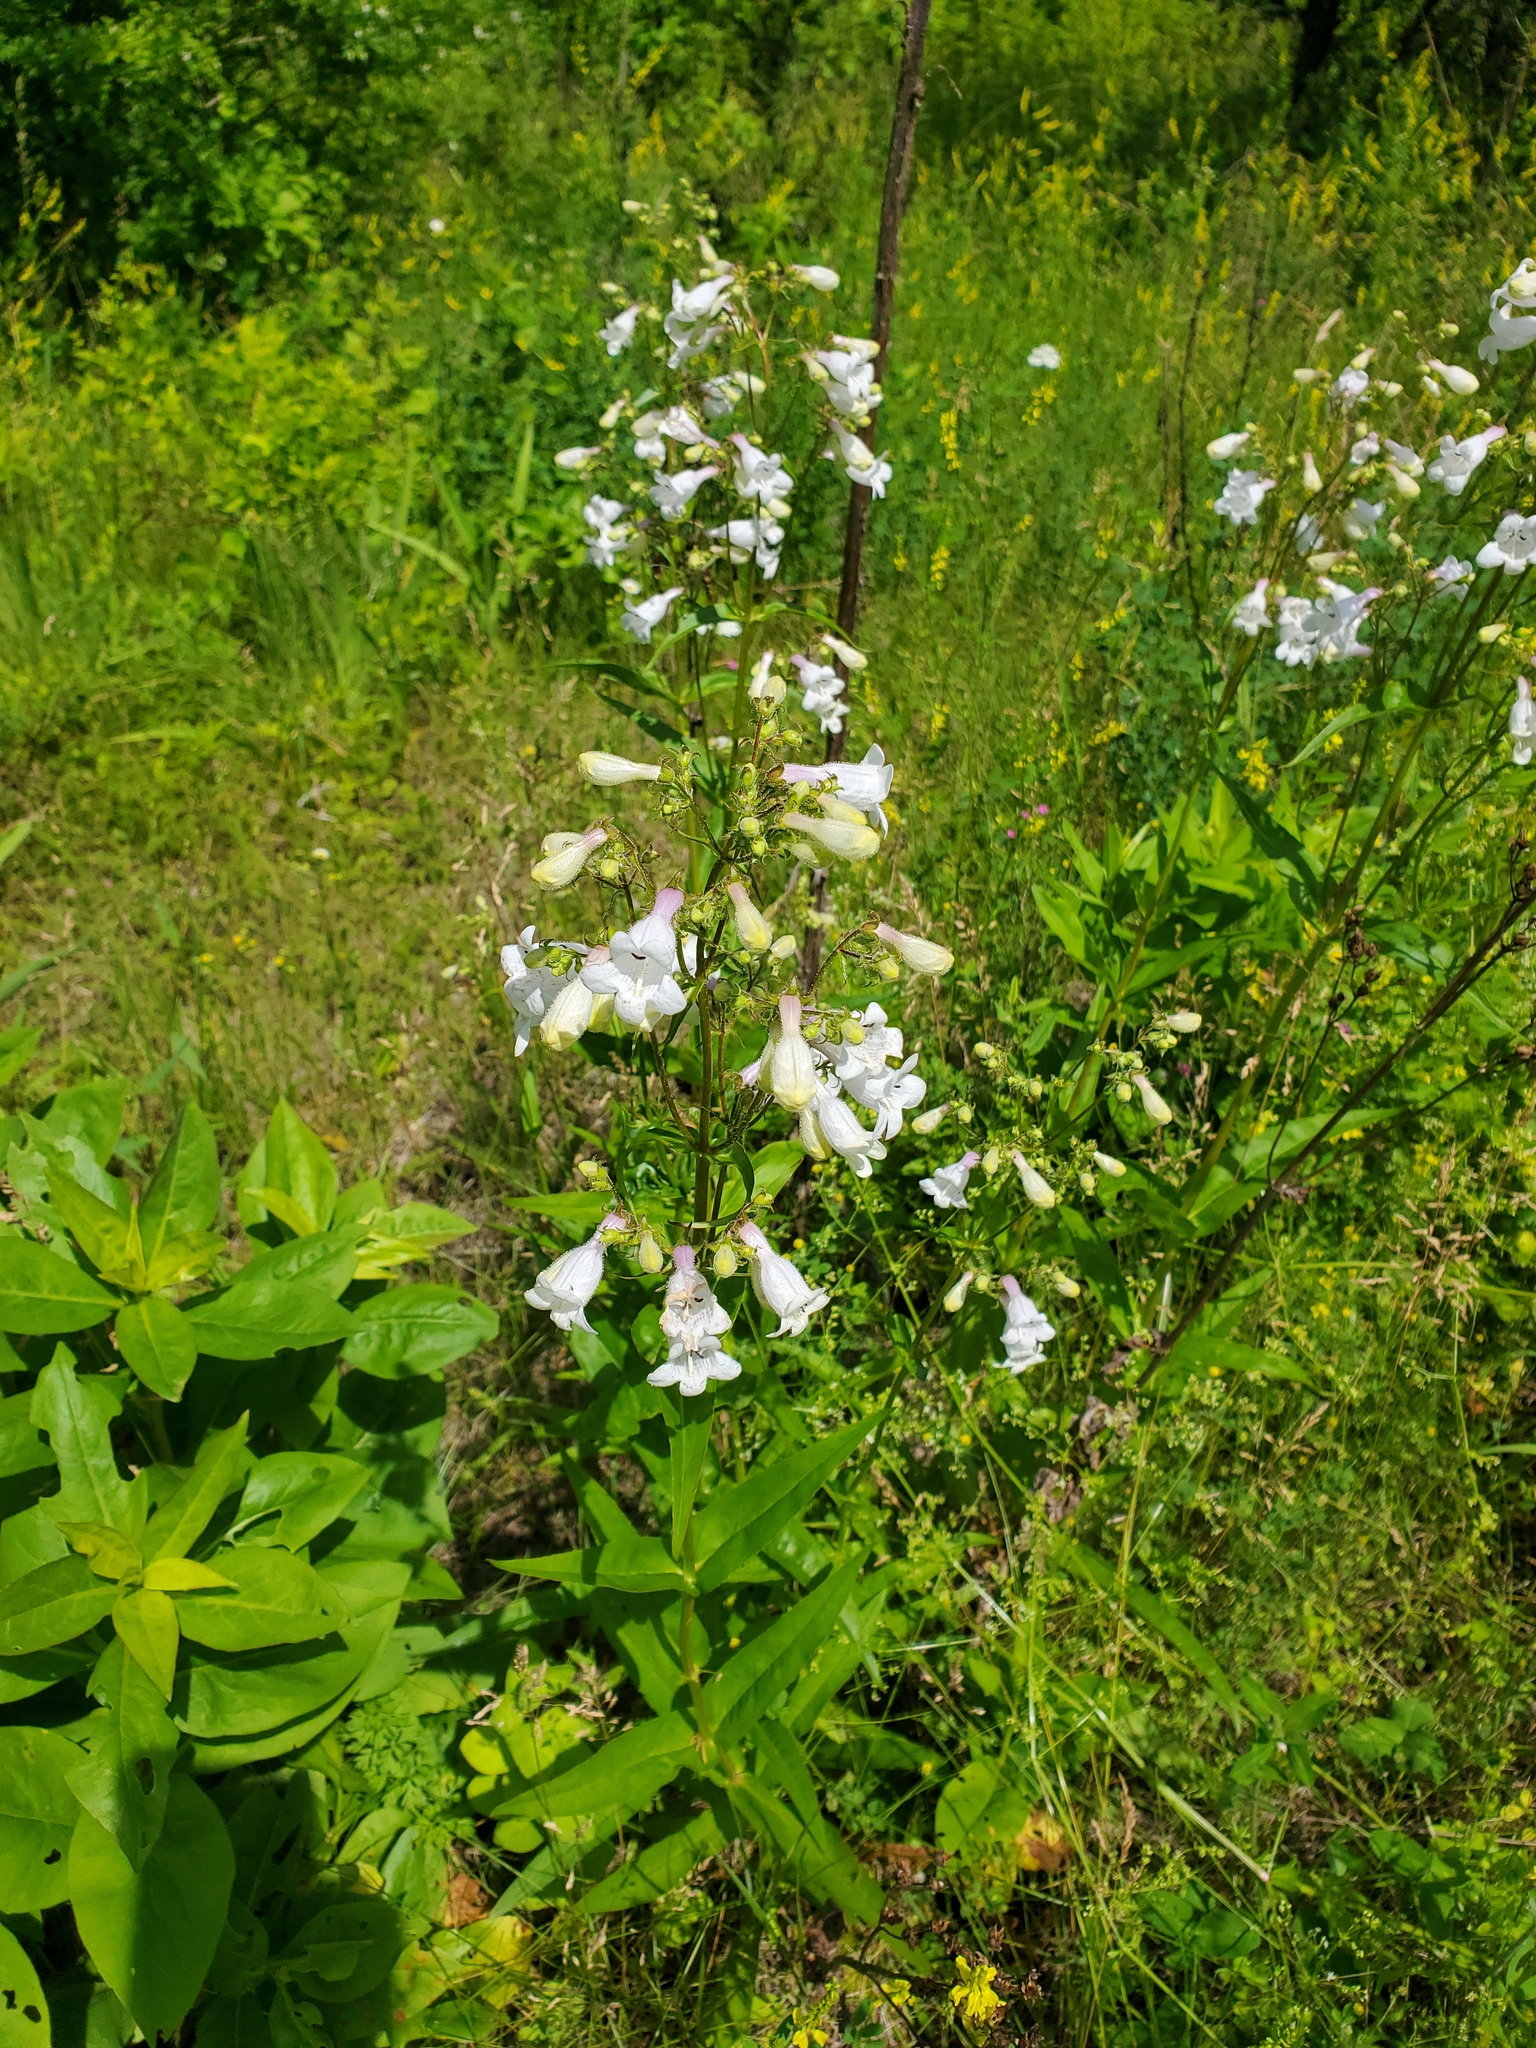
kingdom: Plantae
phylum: Tracheophyta
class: Magnoliopsida
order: Lamiales
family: Plantaginaceae
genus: Penstemon
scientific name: Penstemon digitalis
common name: Foxglove beardtongue
